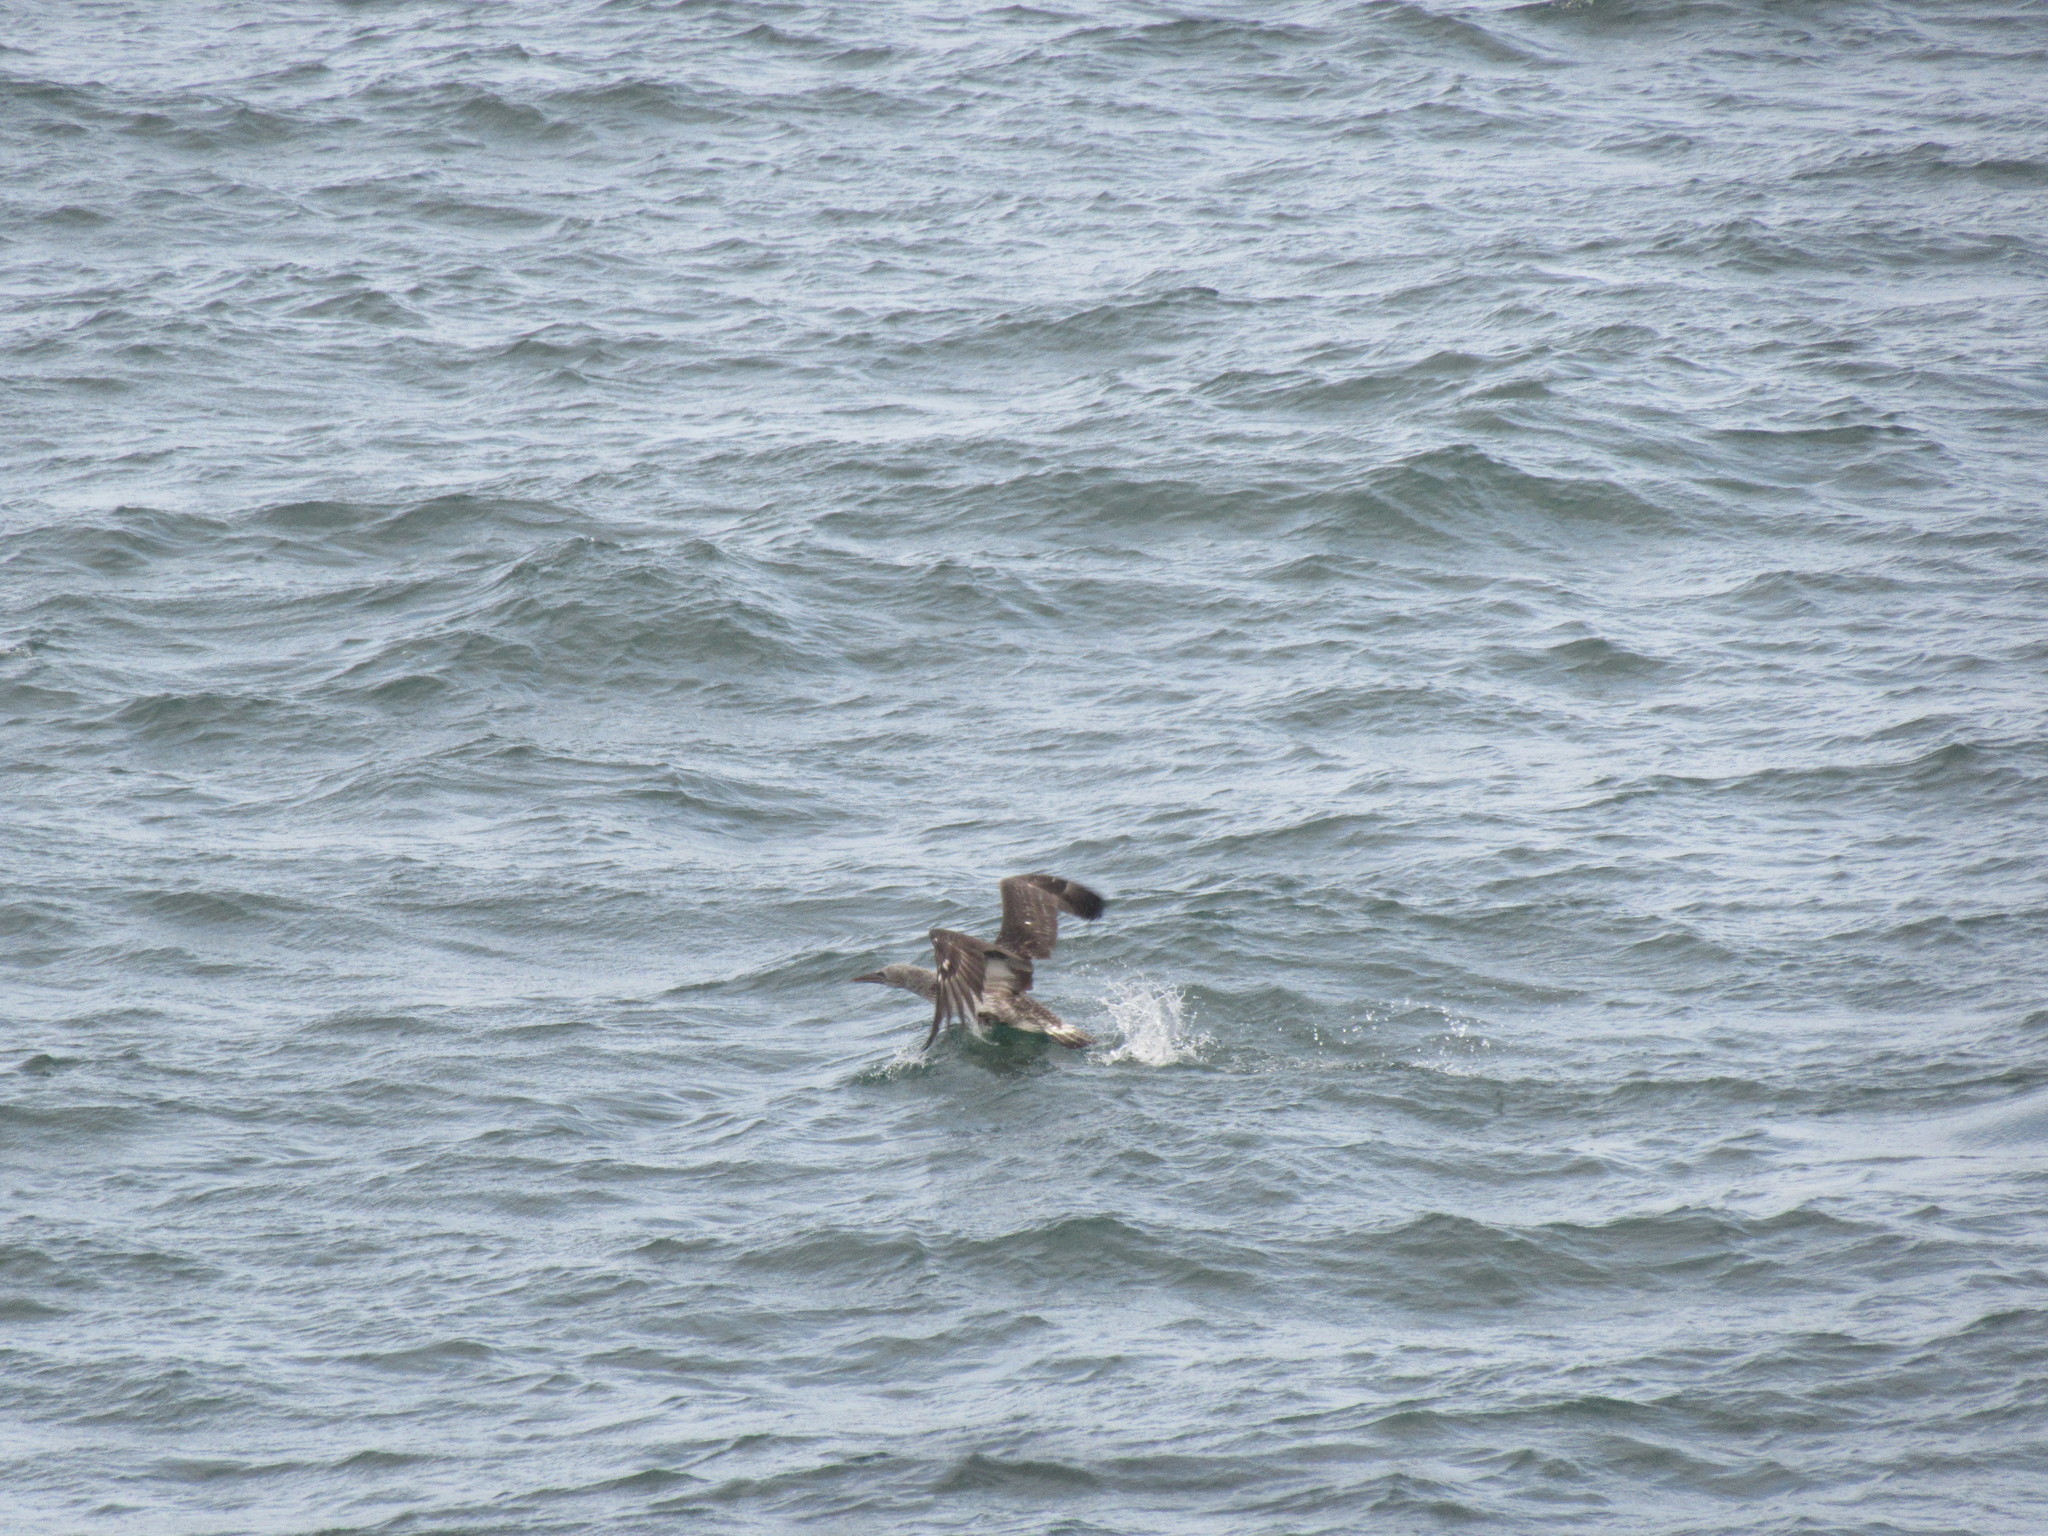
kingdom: Animalia
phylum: Chordata
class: Aves
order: Suliformes
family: Sulidae
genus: Morus
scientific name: Morus bassanus
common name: Northern gannet
